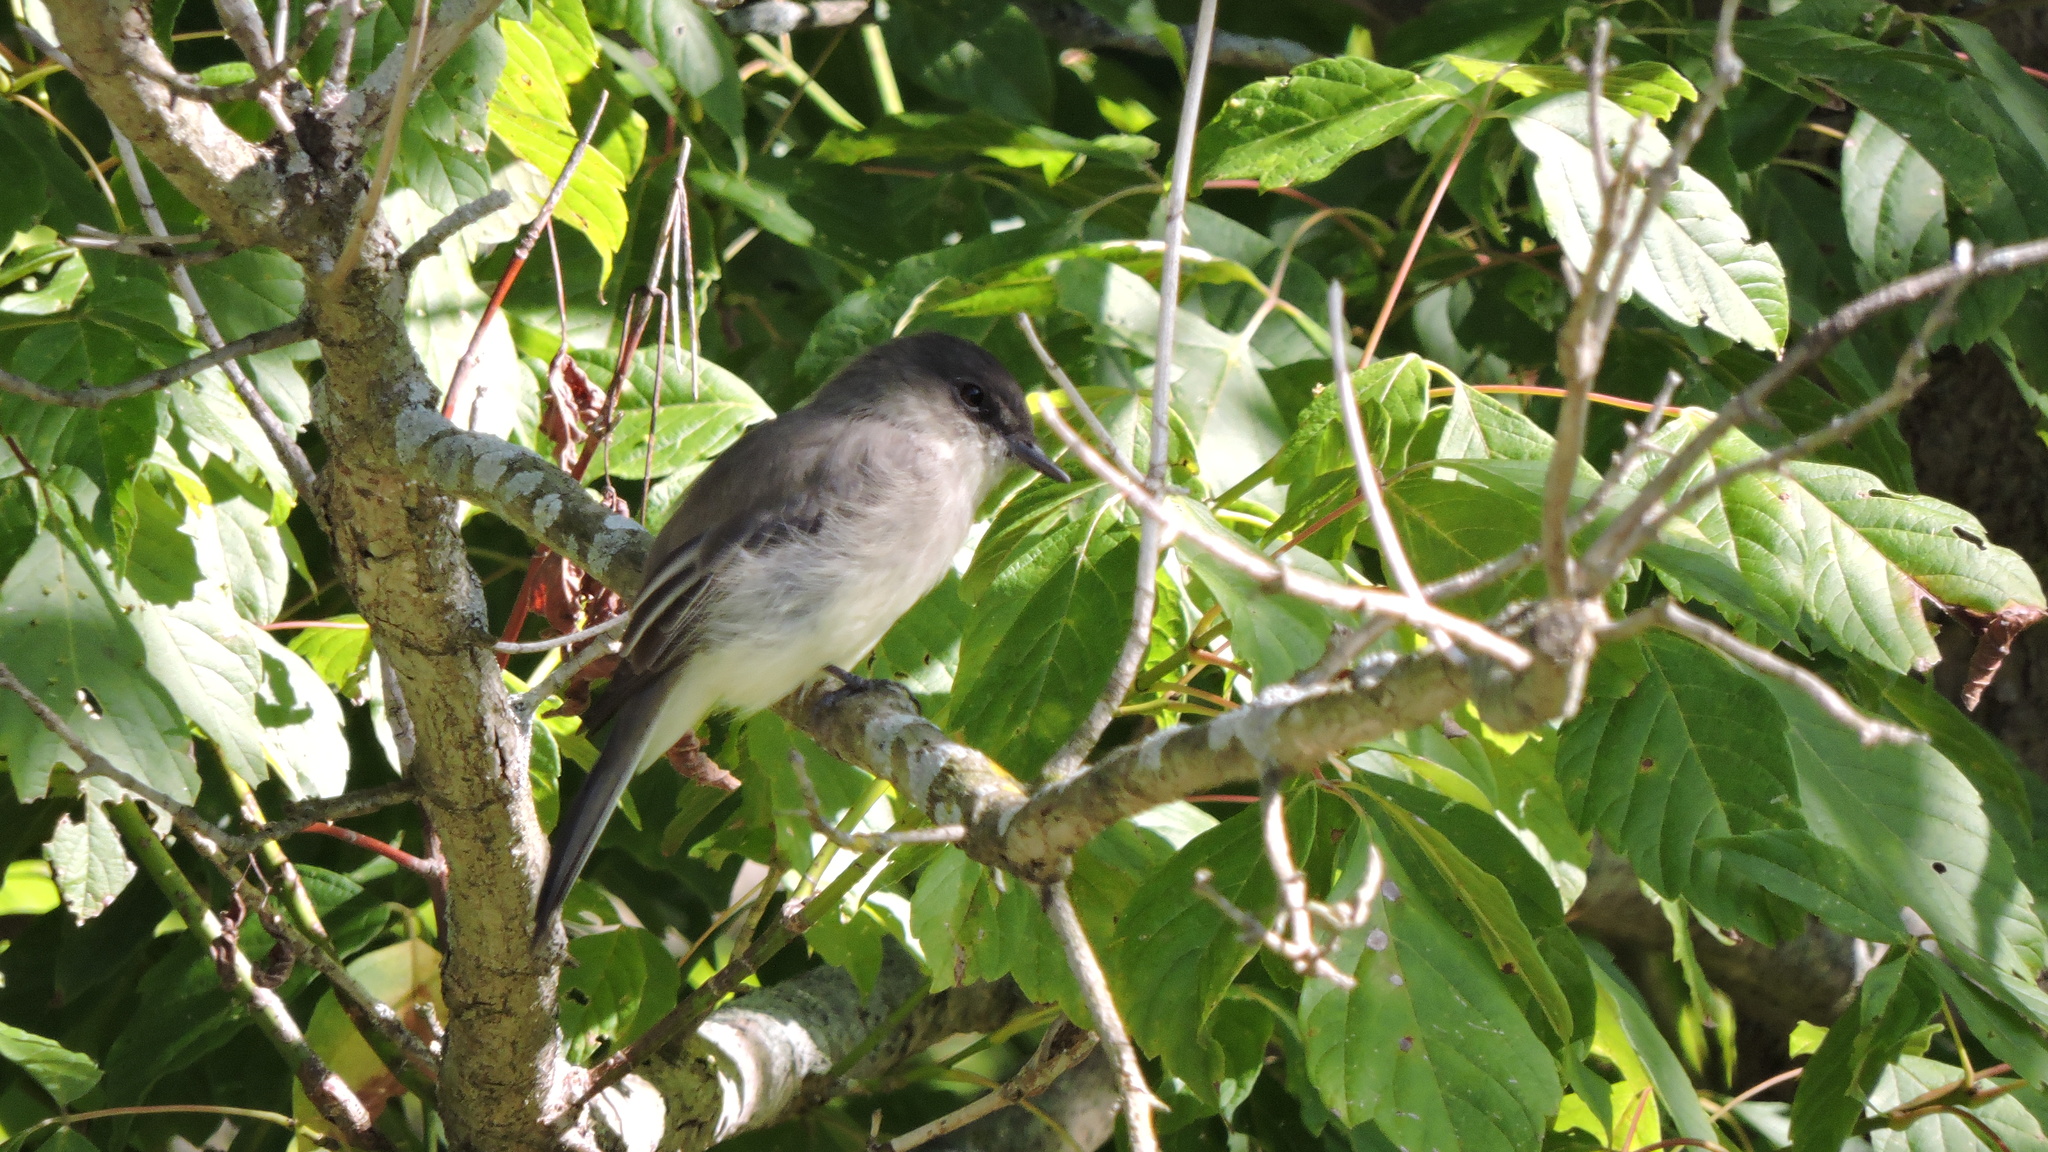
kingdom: Animalia
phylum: Chordata
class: Aves
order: Passeriformes
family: Tyrannidae
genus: Sayornis
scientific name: Sayornis phoebe
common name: Eastern phoebe
